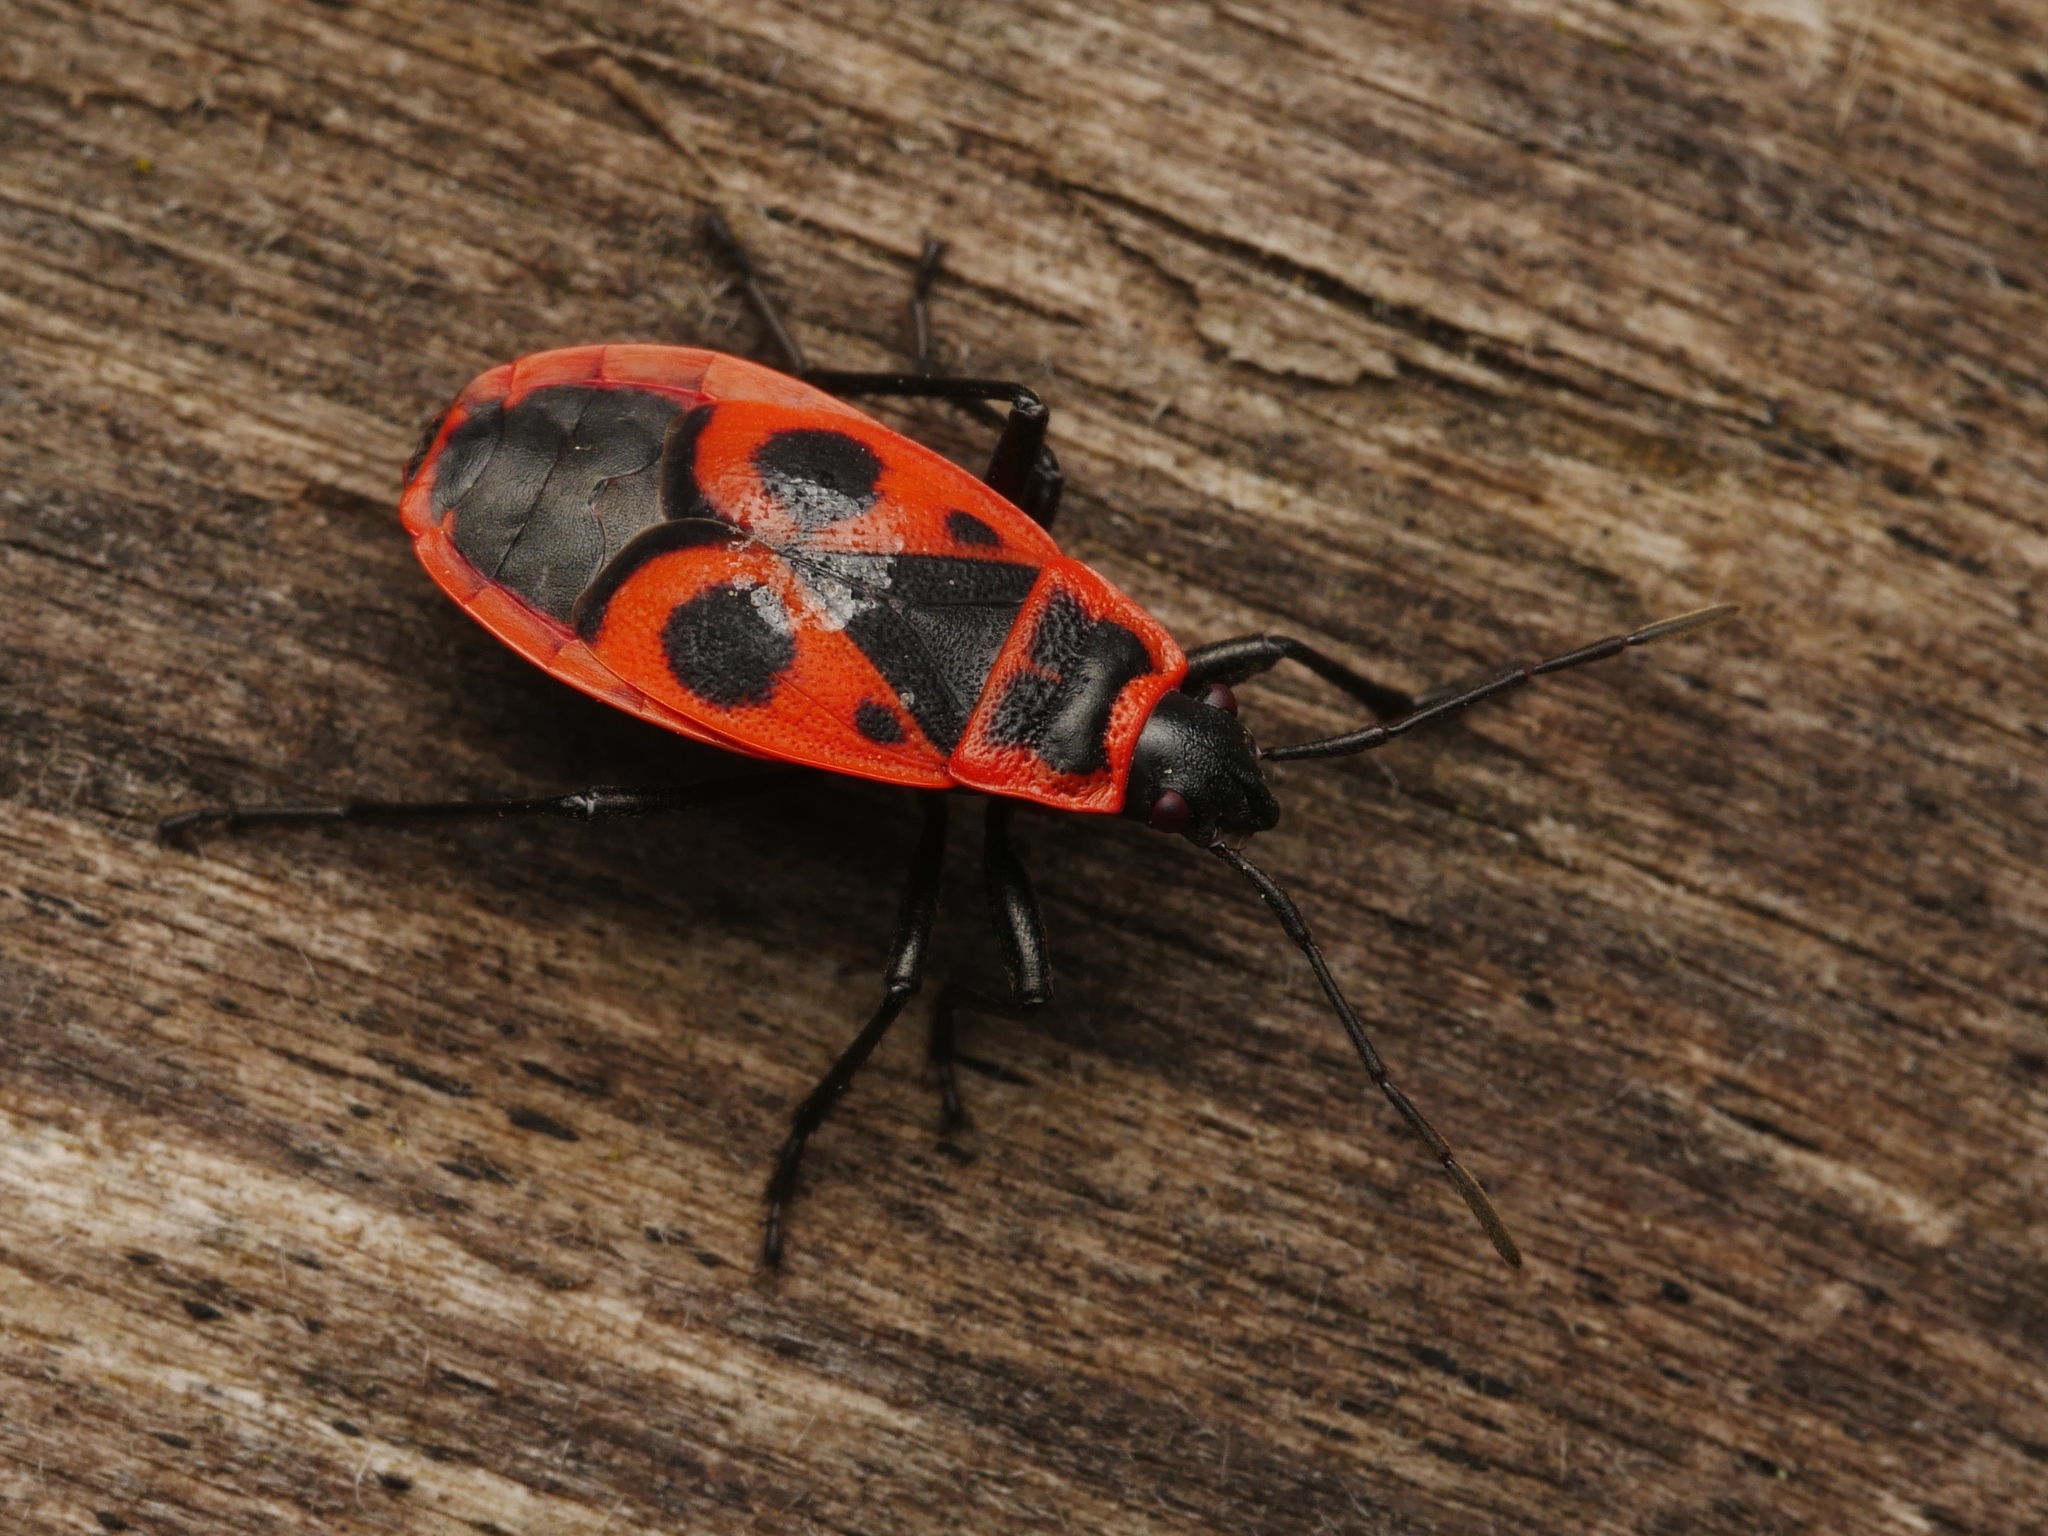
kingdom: Animalia
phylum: Arthropoda
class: Insecta
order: Hemiptera
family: Pyrrhocoridae
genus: Pyrrhocoris
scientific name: Pyrrhocoris apterus
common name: Firebug
